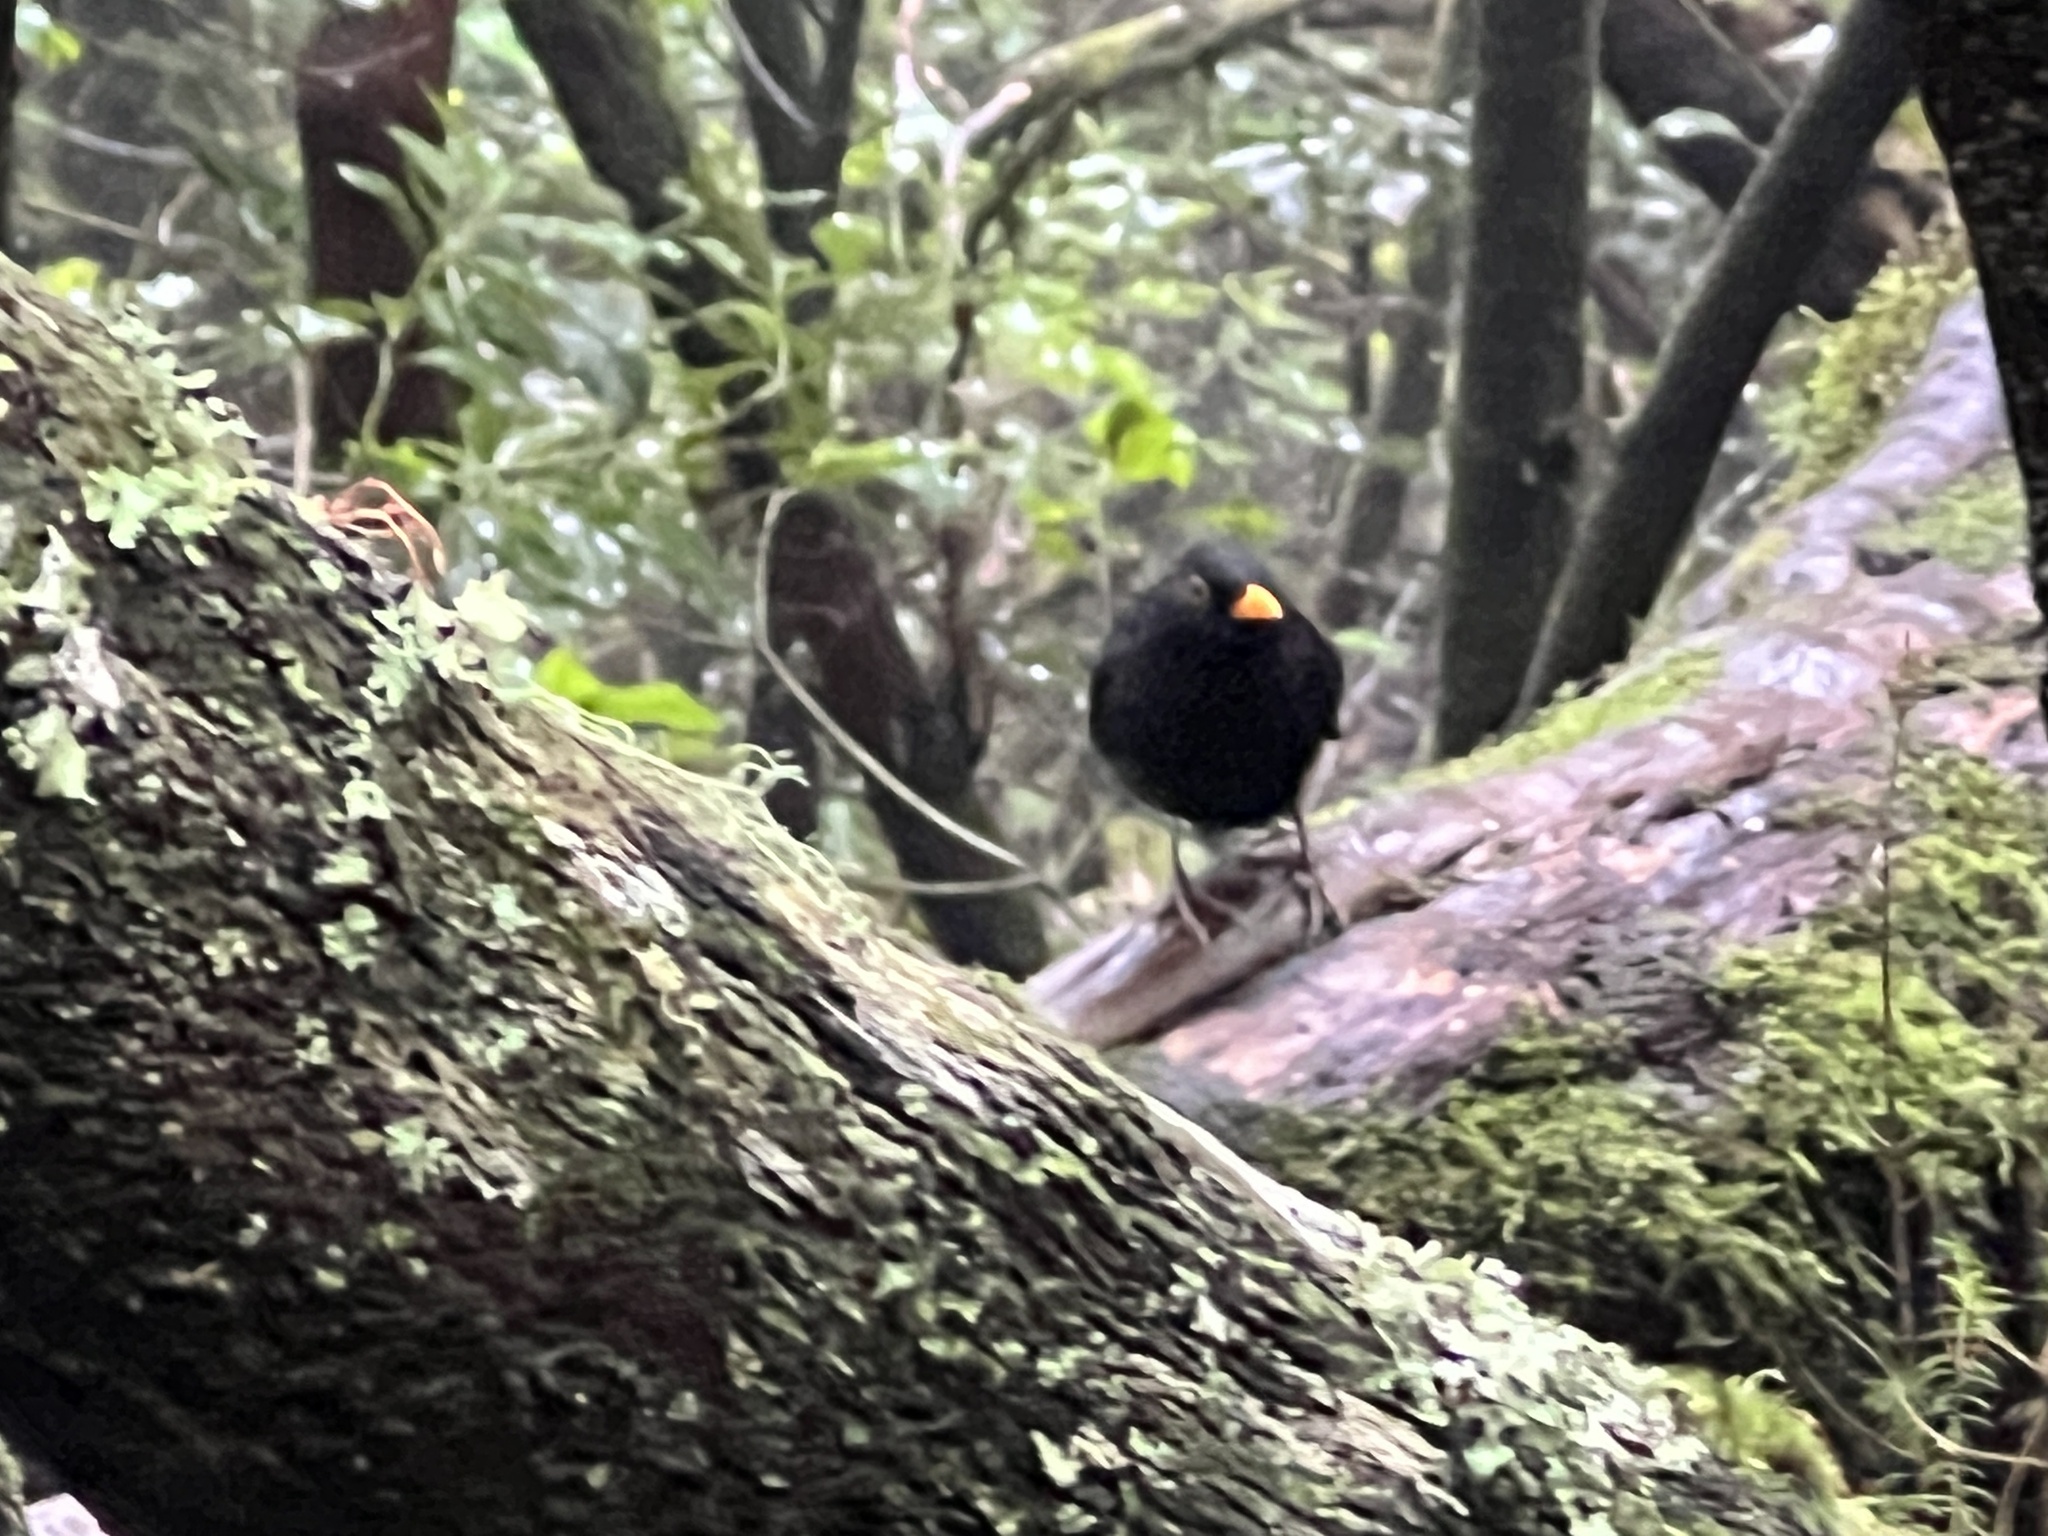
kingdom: Animalia
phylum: Chordata
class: Aves
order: Passeriformes
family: Turdidae
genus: Turdus
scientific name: Turdus merula
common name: Common blackbird
